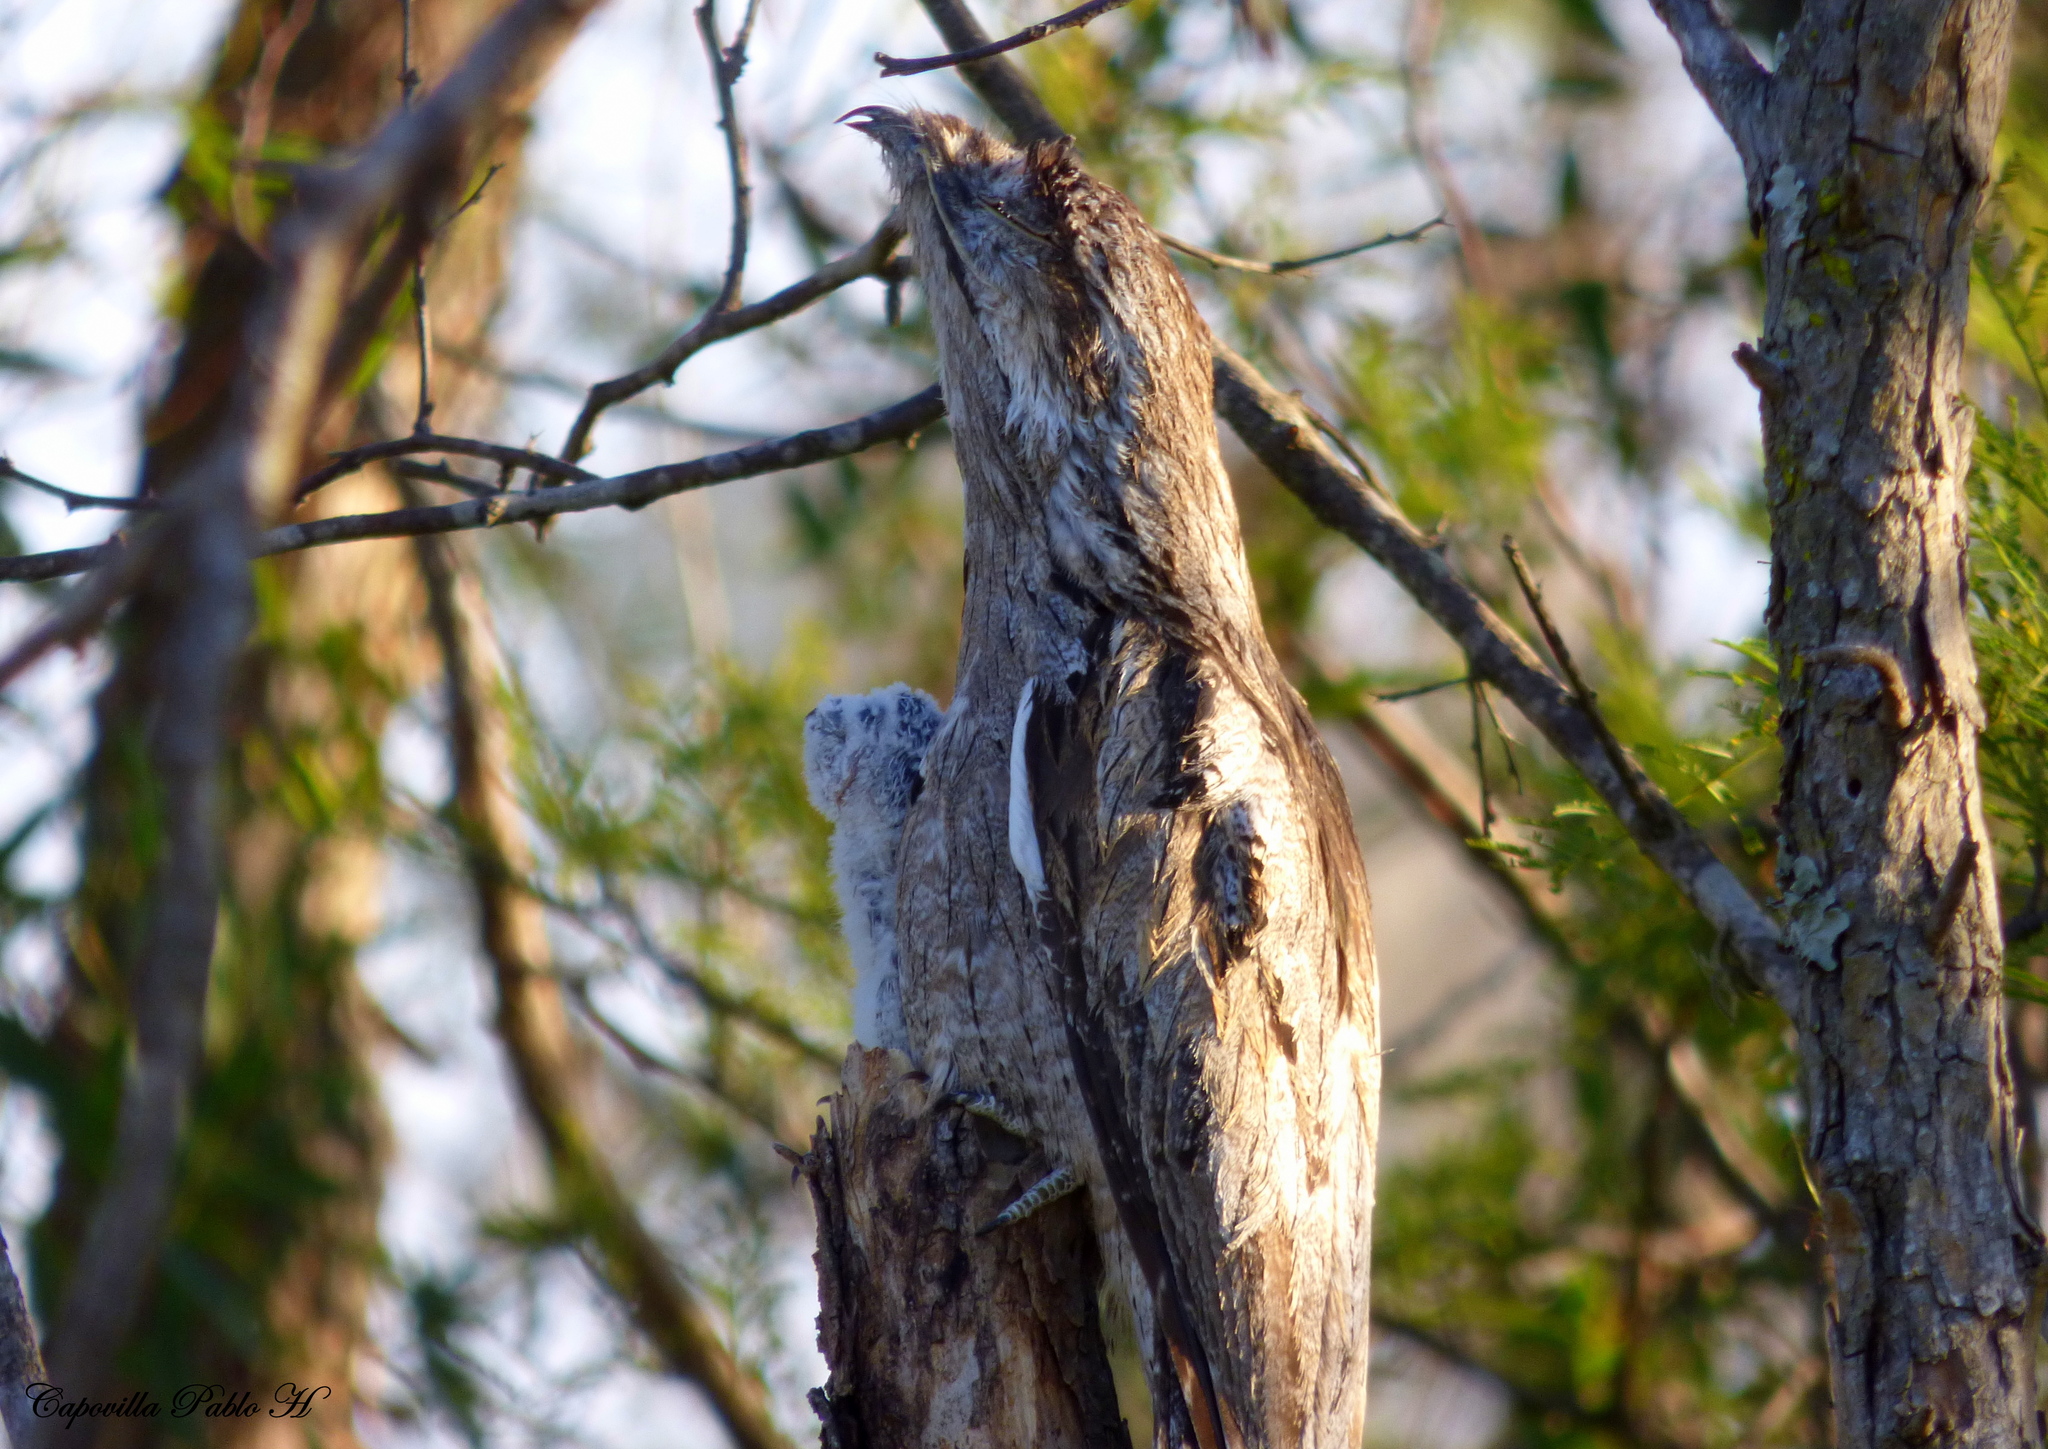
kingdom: Animalia
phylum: Chordata
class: Aves
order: Nyctibiiformes
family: Nyctibiidae
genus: Nyctibius
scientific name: Nyctibius griseus
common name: Common potoo
